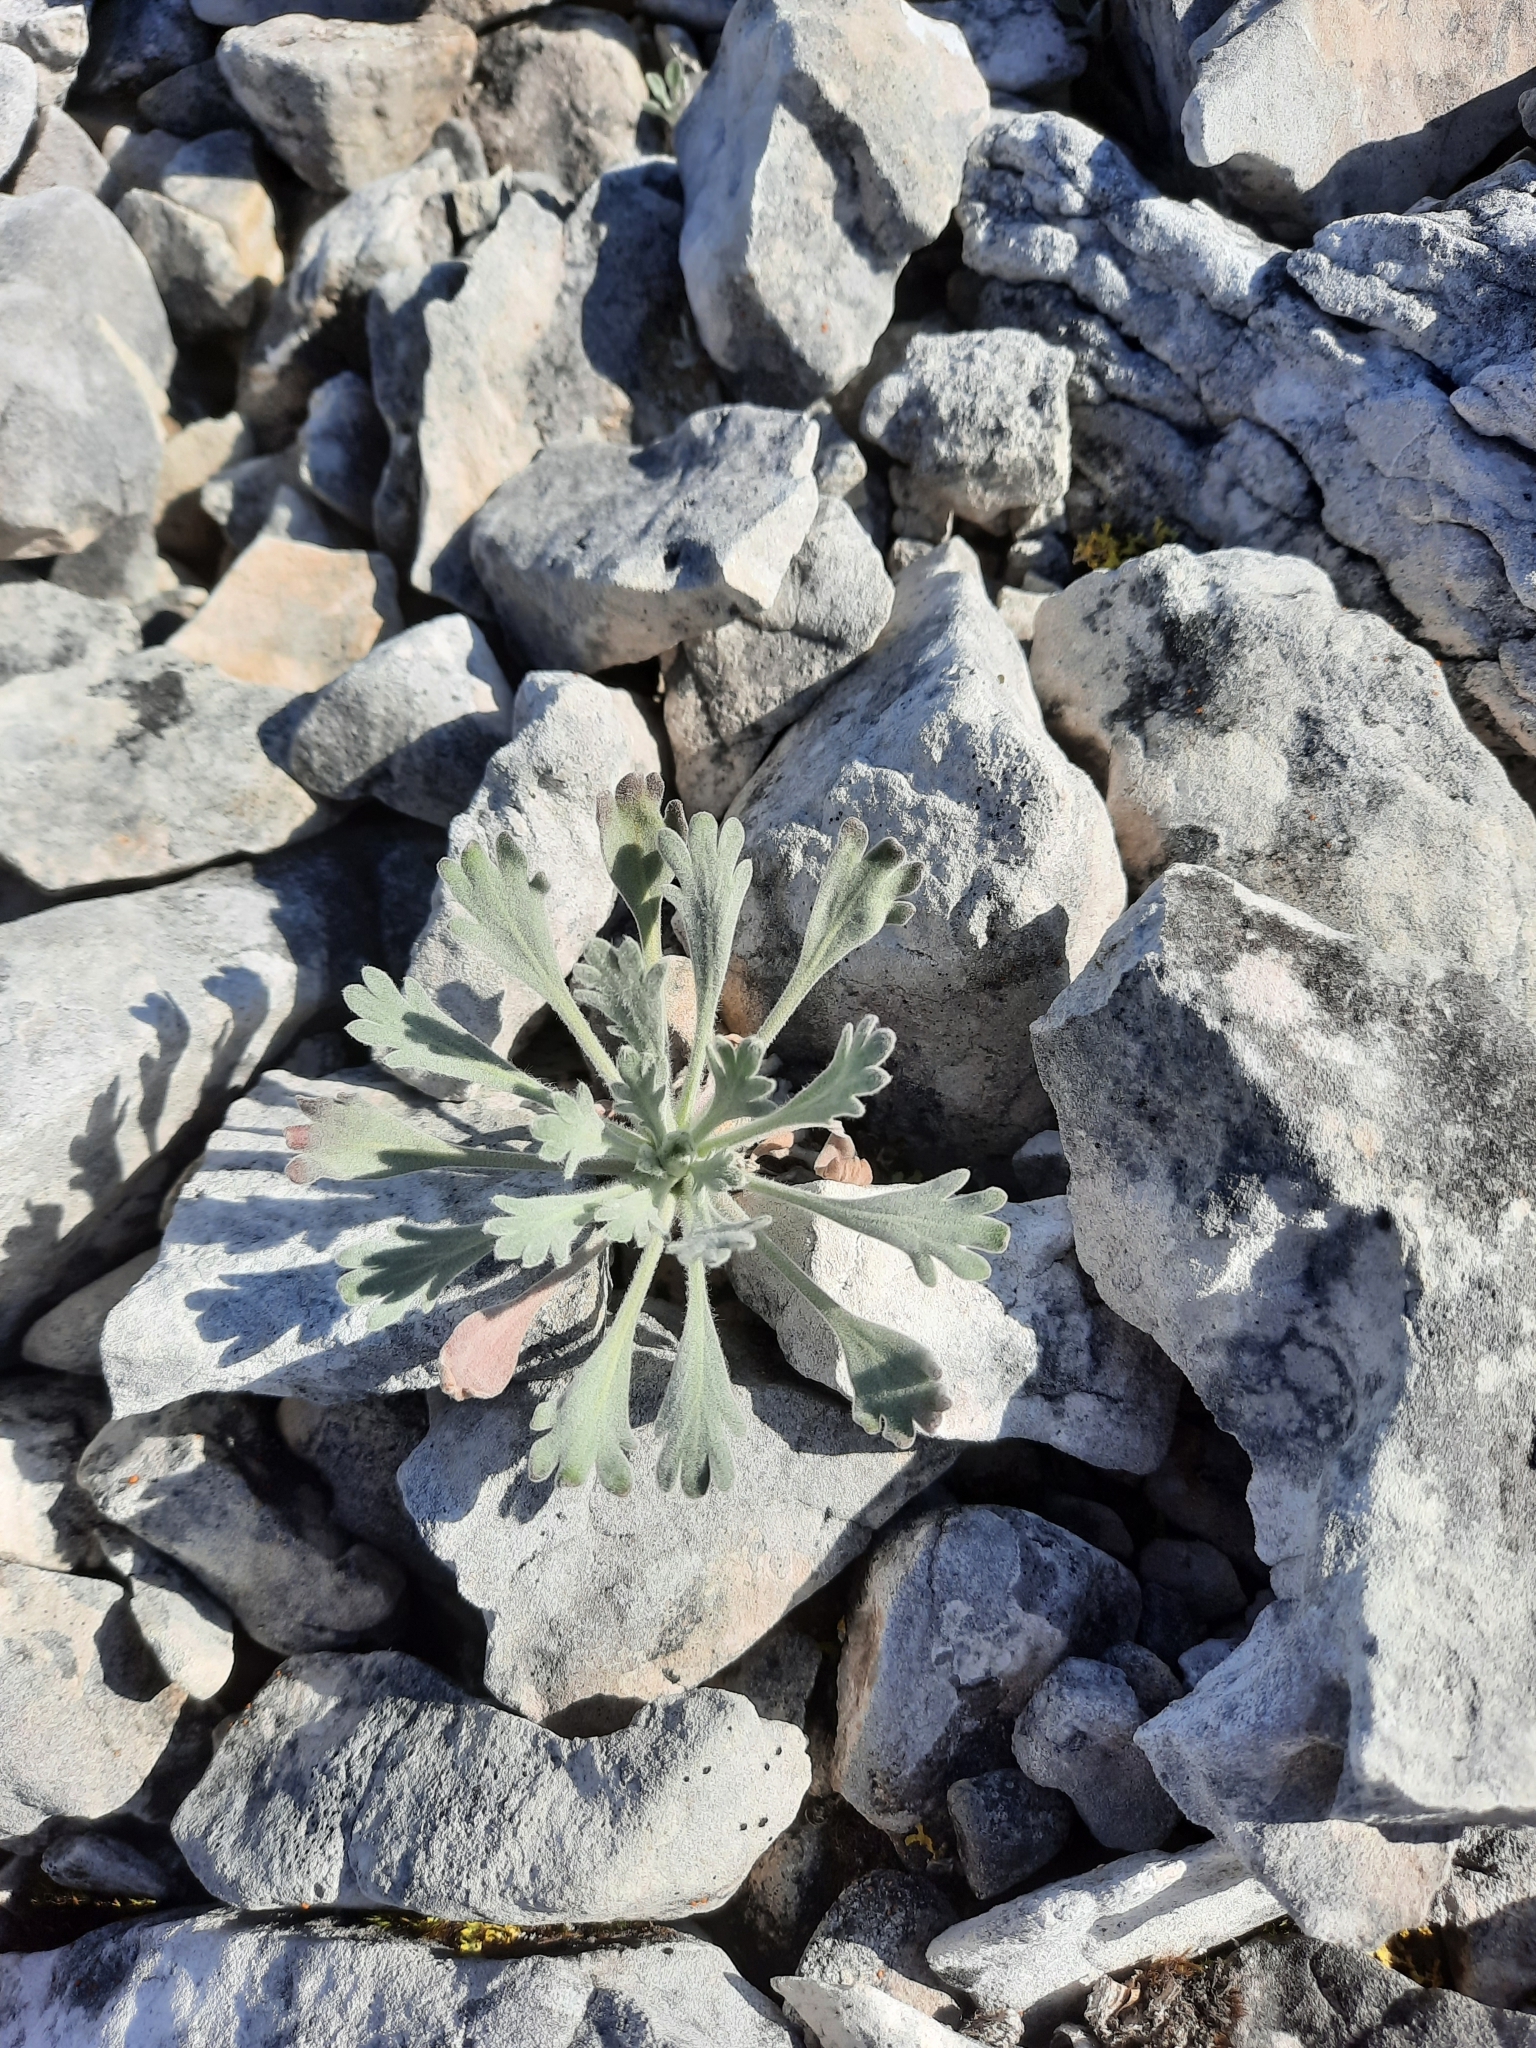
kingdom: Plantae
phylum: Tracheophyta
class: Magnoliopsida
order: Brassicales
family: Brassicaceae
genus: Smelowskia
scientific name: Smelowskia borealis
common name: False candytuft
